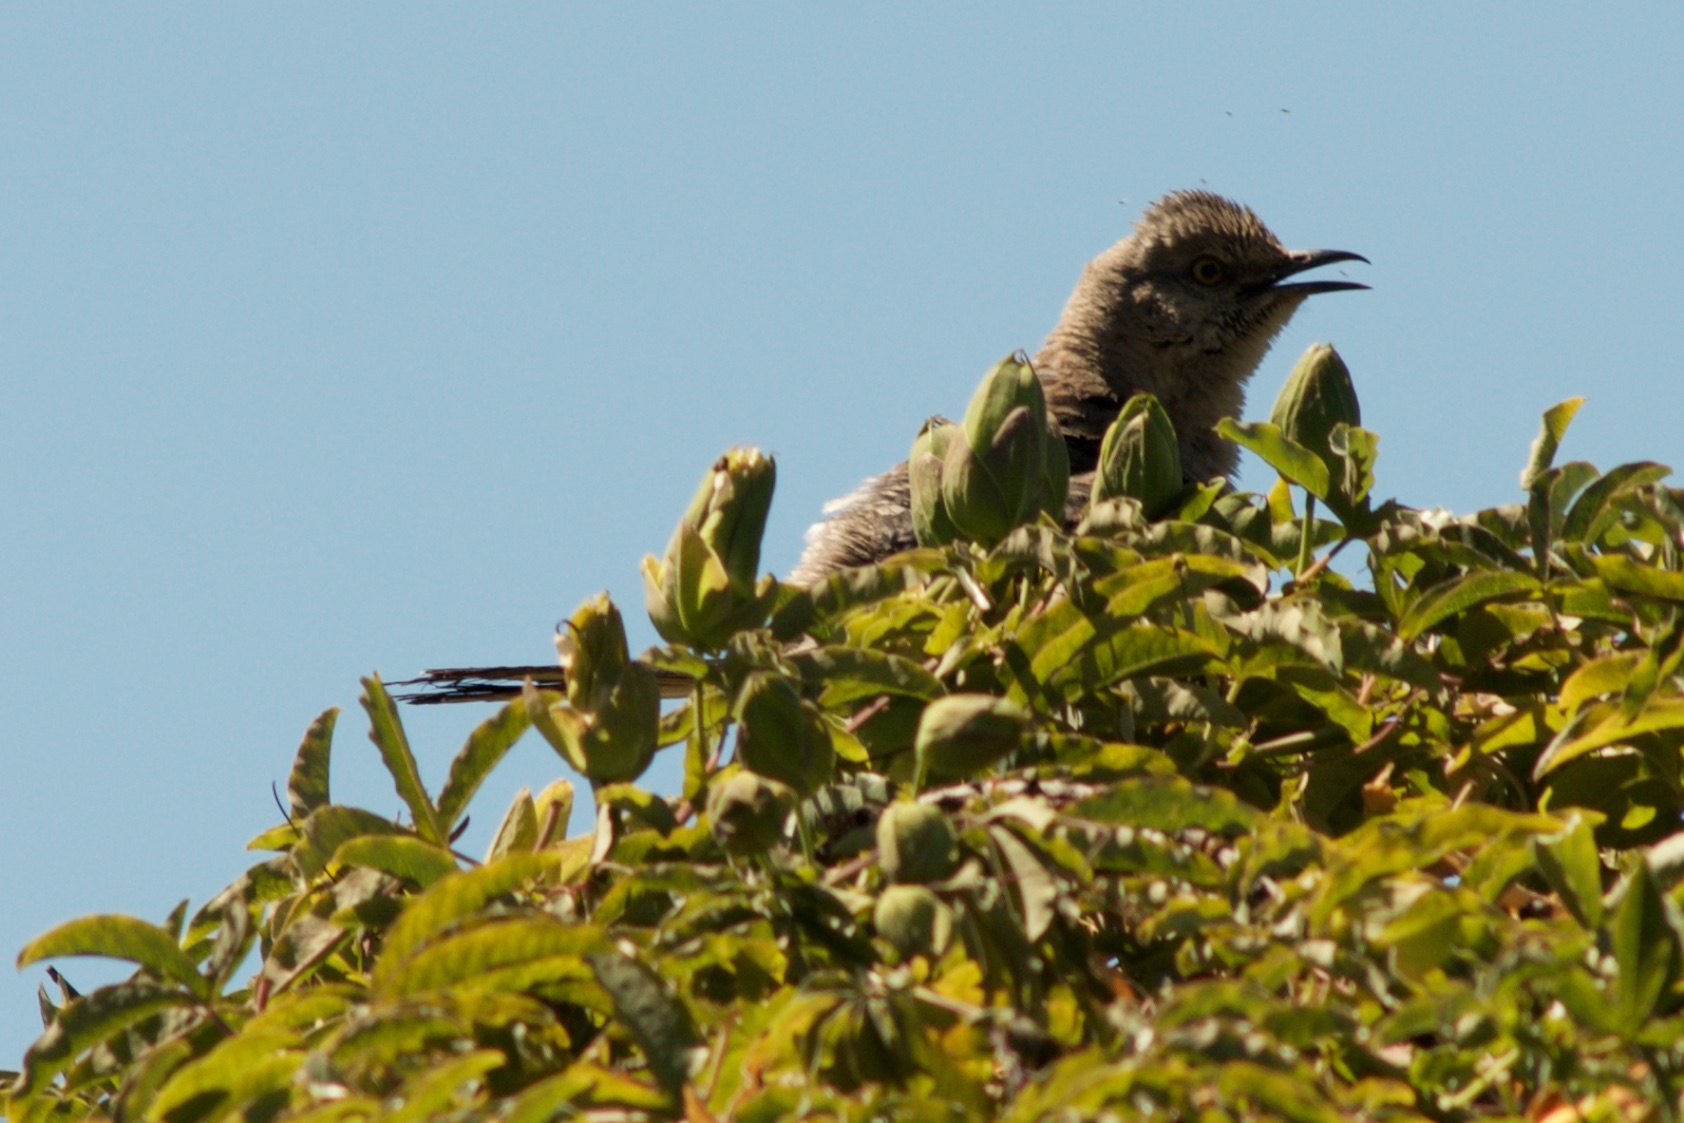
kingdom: Animalia
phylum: Chordata
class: Aves
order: Passeriformes
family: Mimidae
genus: Mimus
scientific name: Mimus polyglottos
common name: Northern mockingbird
